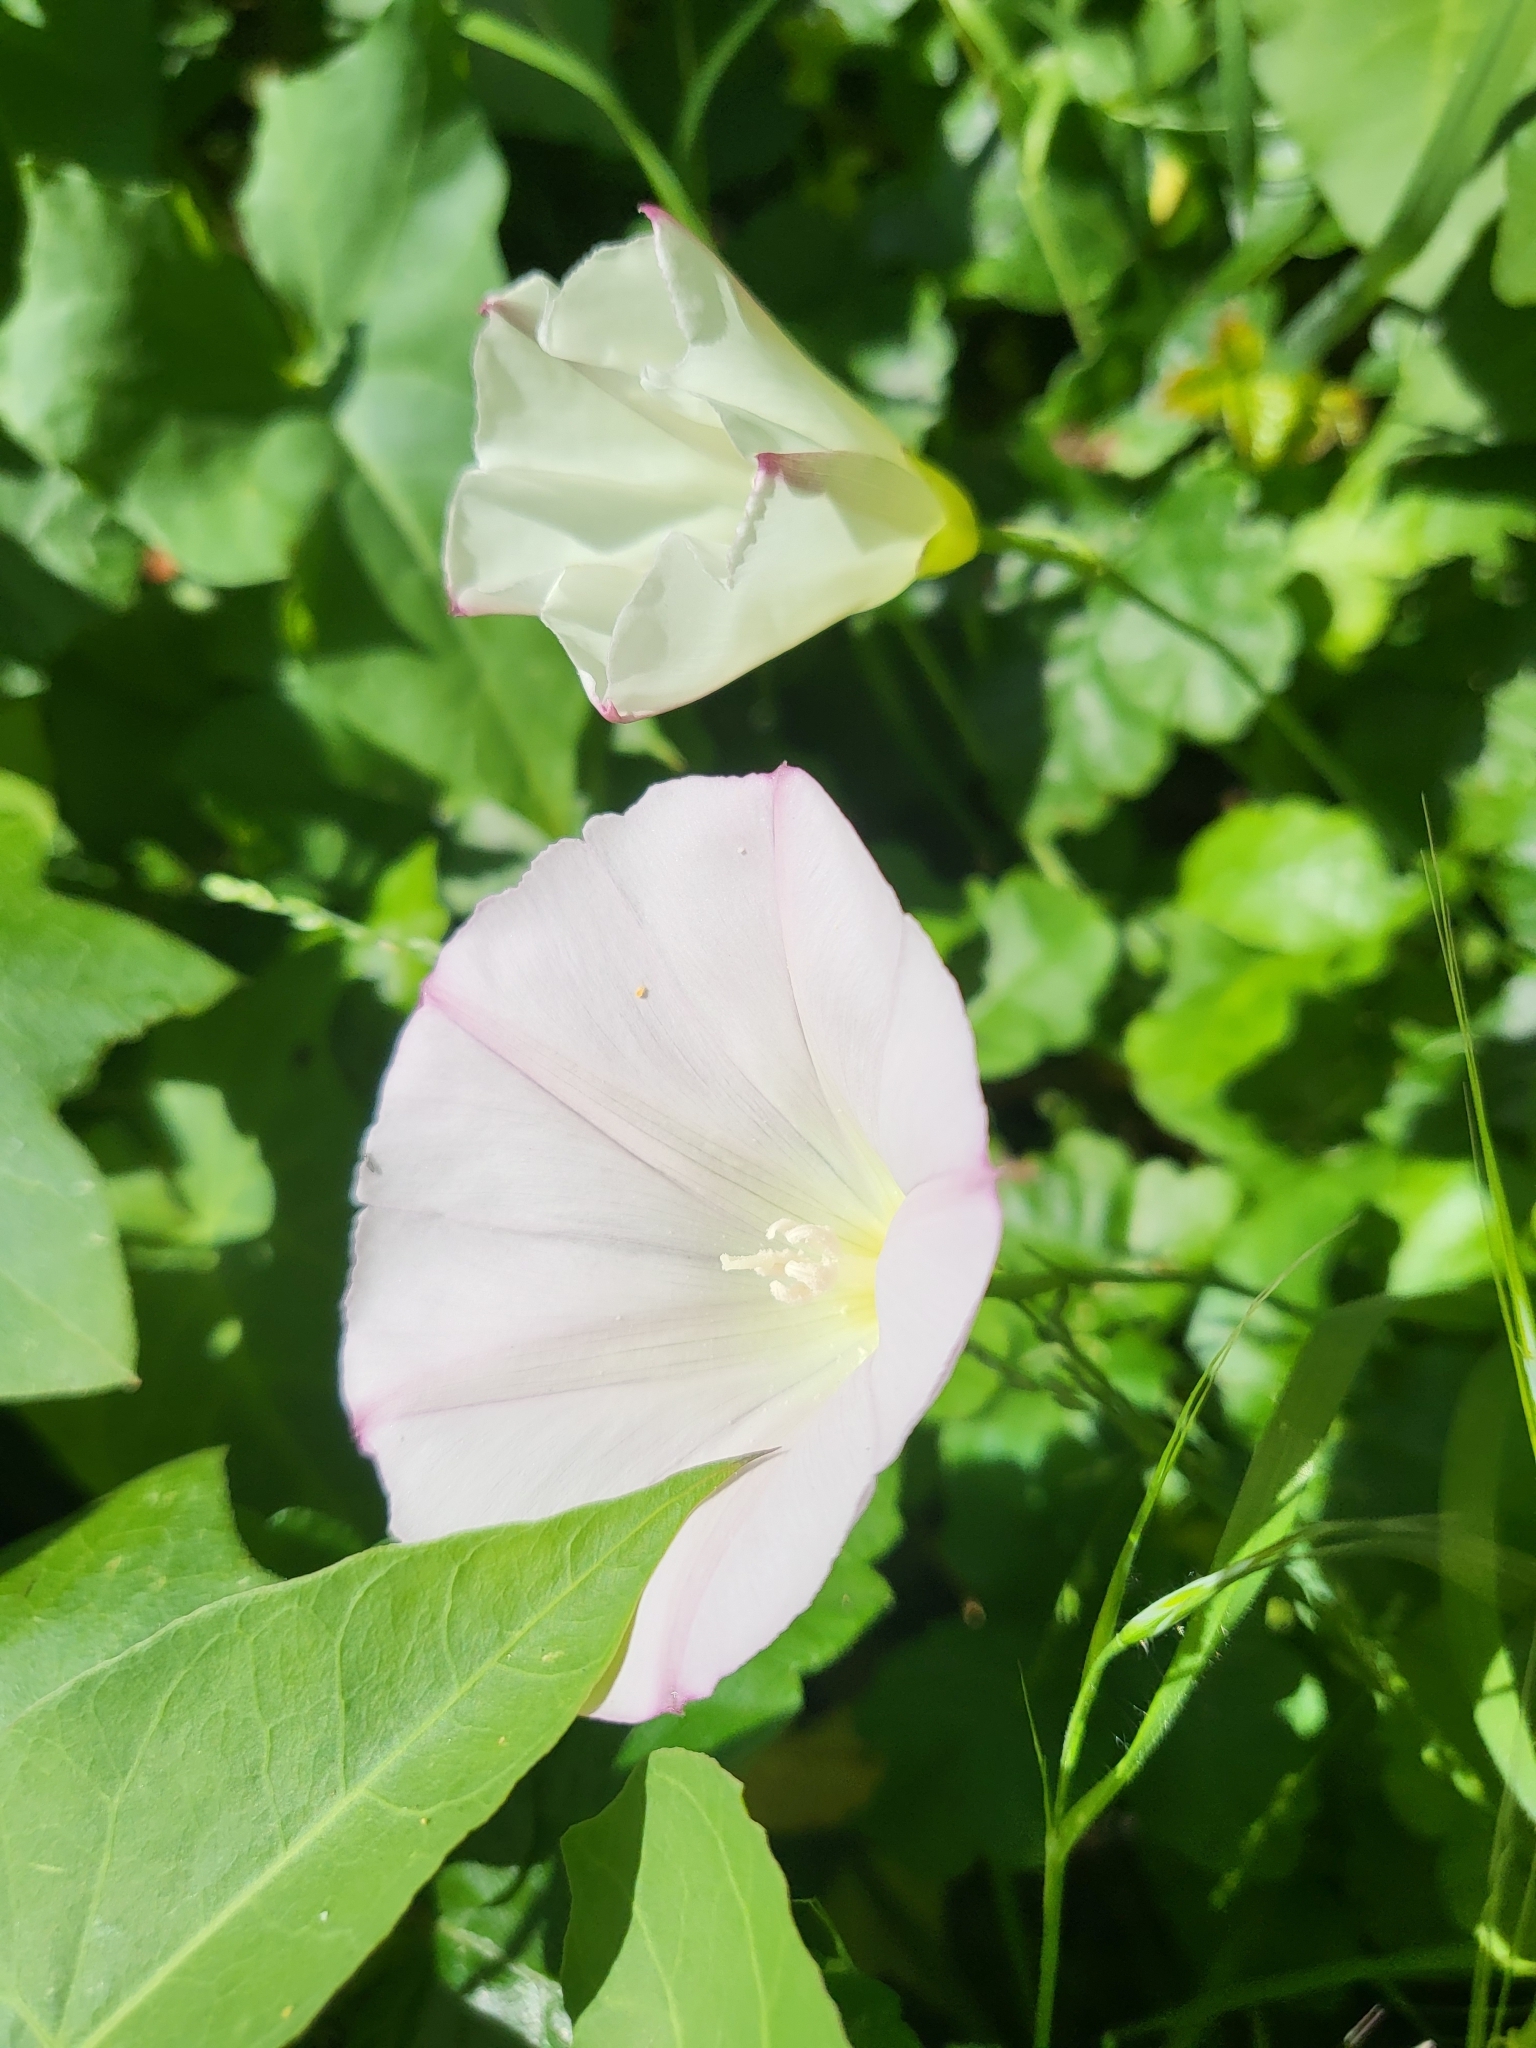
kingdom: Plantae
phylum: Tracheophyta
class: Magnoliopsida
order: Solanales
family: Convolvulaceae
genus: Calystegia
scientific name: Calystegia purpurata
